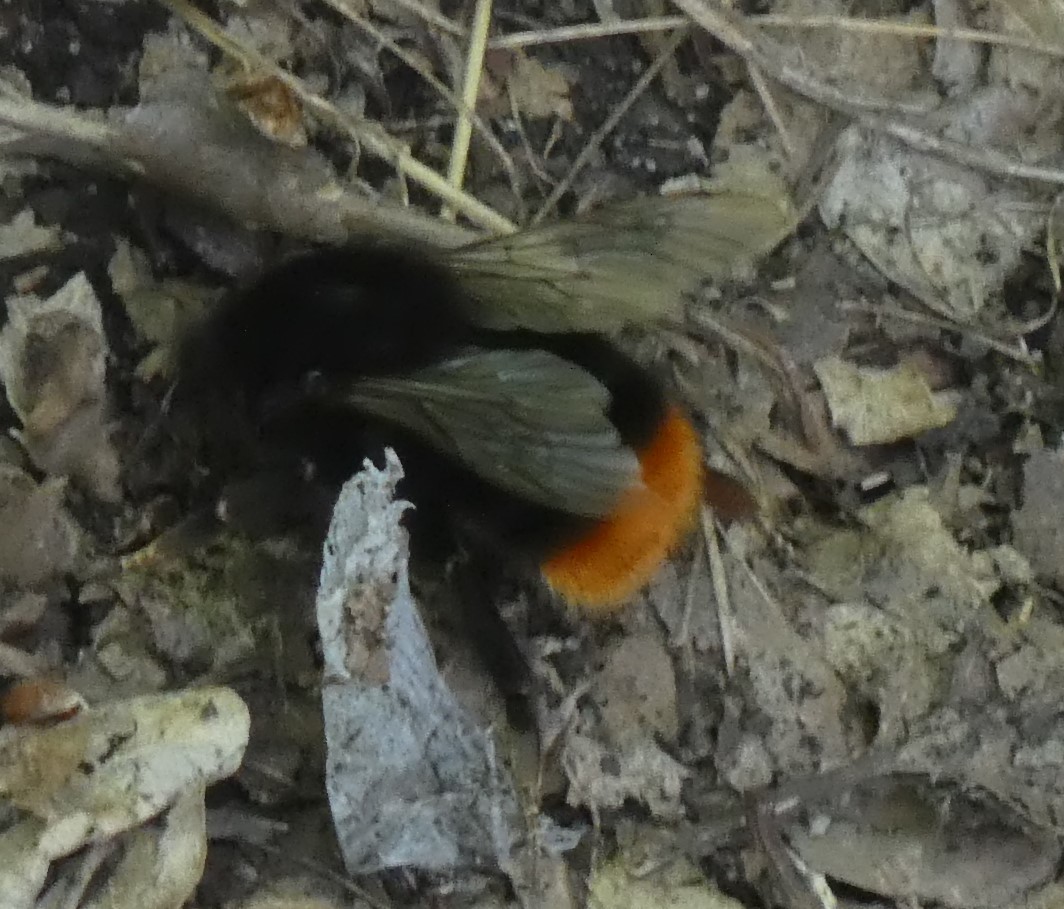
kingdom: Animalia
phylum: Arthropoda
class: Insecta
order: Hymenoptera
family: Apidae
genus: Bombus
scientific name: Bombus lapidarius
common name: Large red-tailed humble-bee
